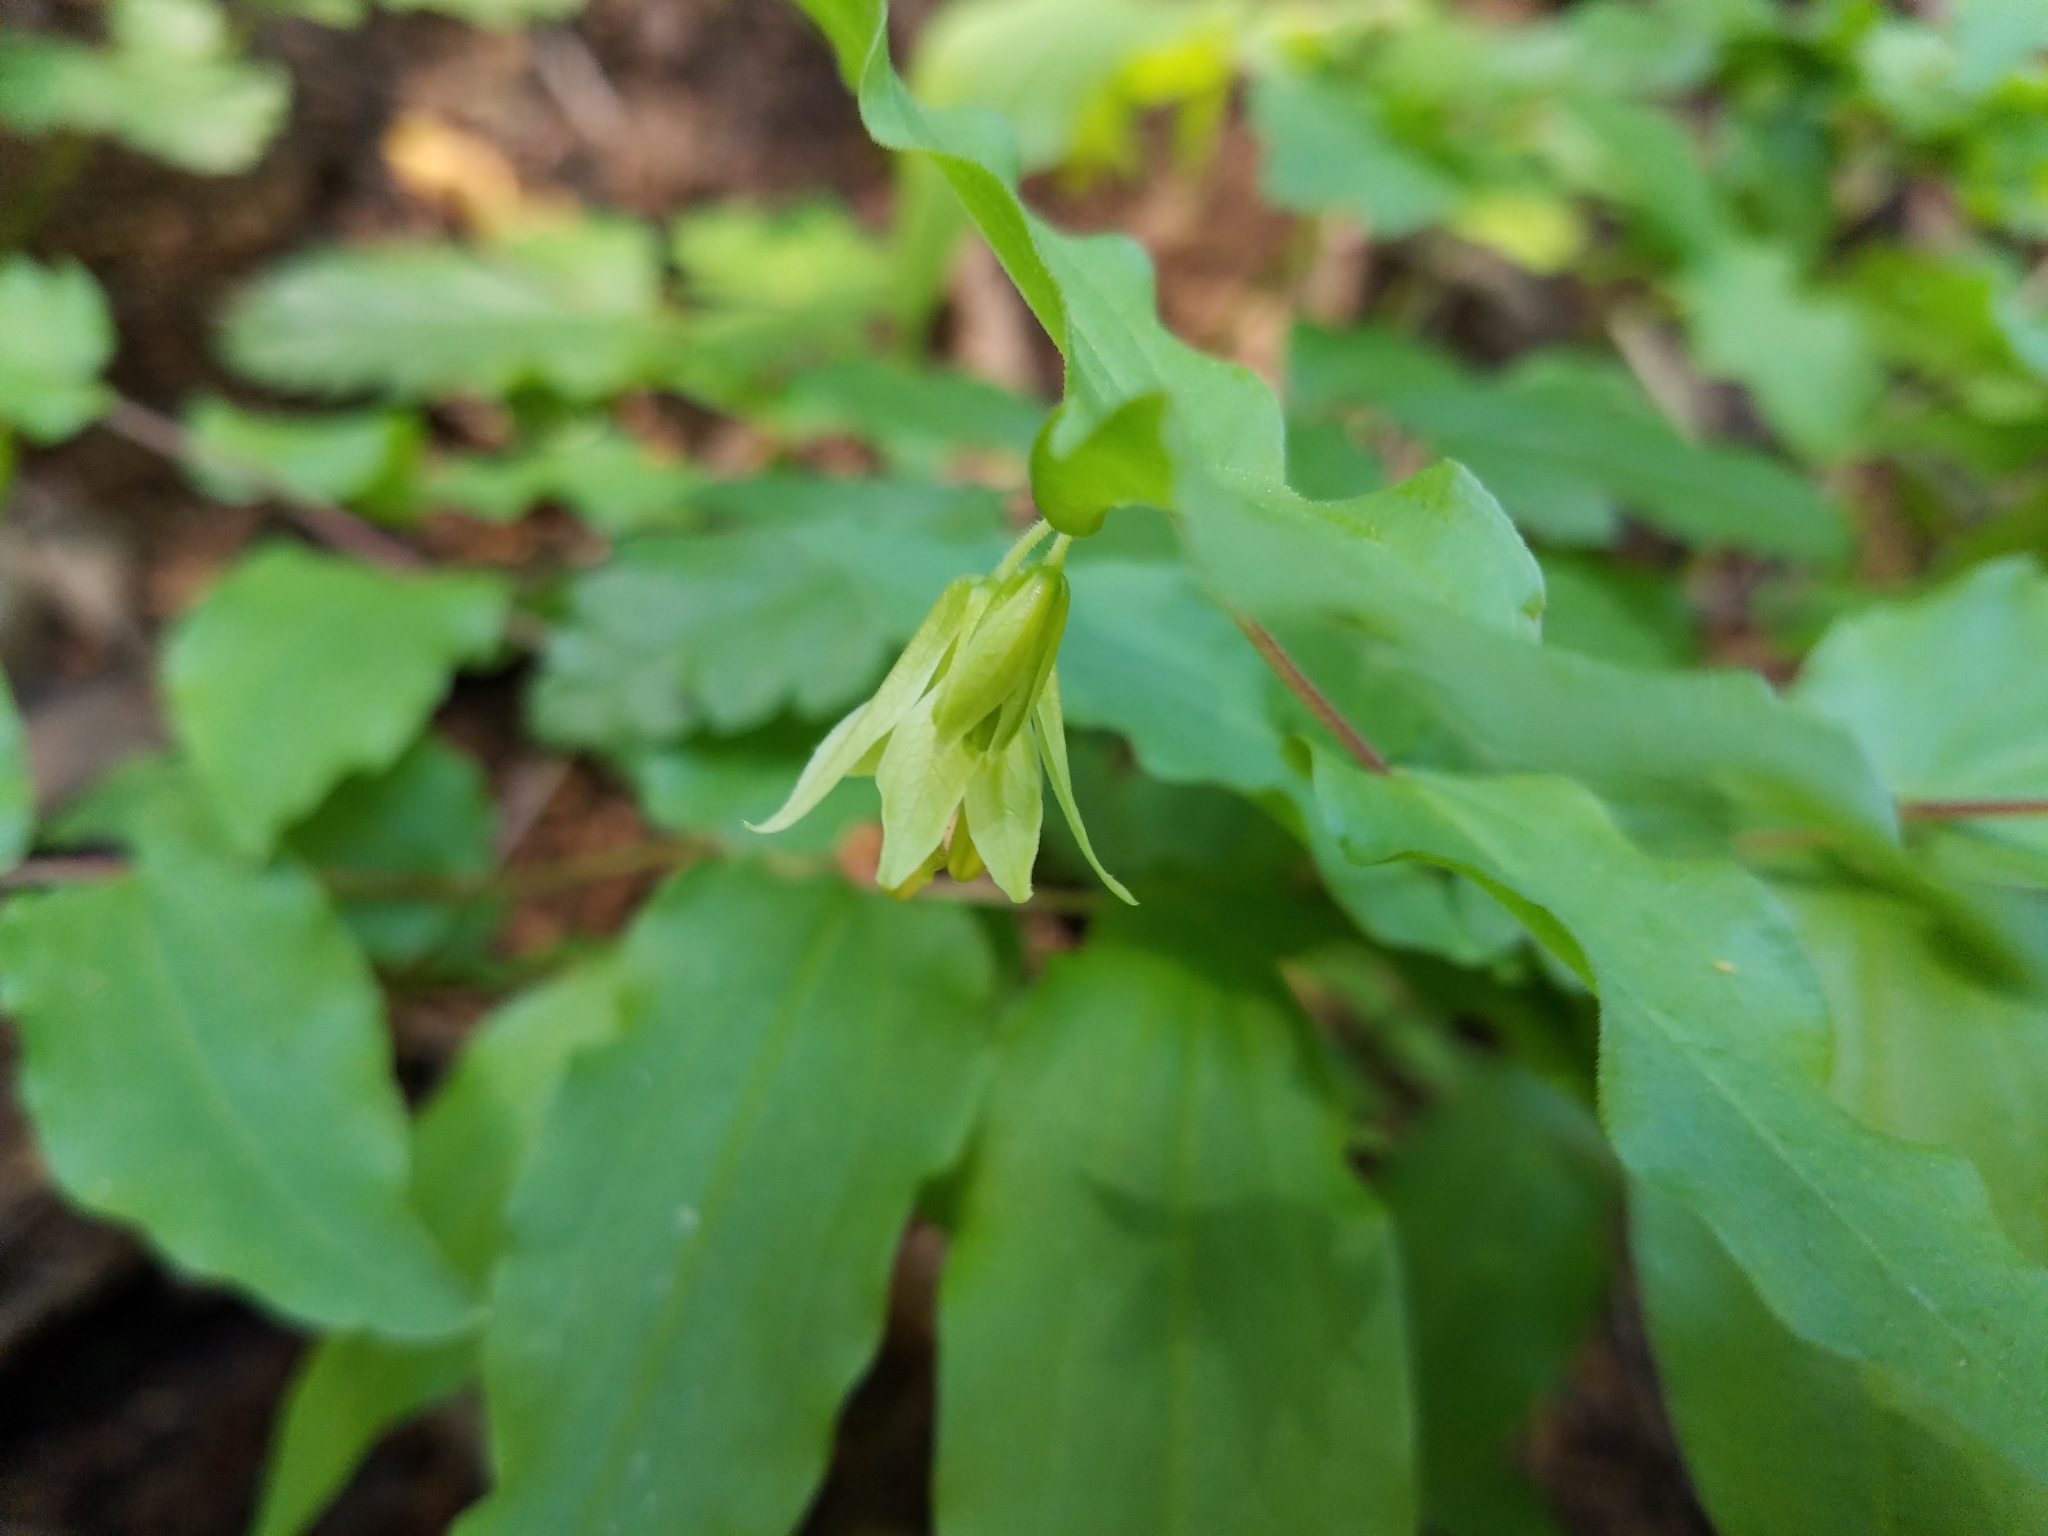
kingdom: Plantae
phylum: Tracheophyta
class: Liliopsida
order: Liliales
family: Liliaceae
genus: Prosartes
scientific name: Prosartes hookeri
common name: Fairy-bells
